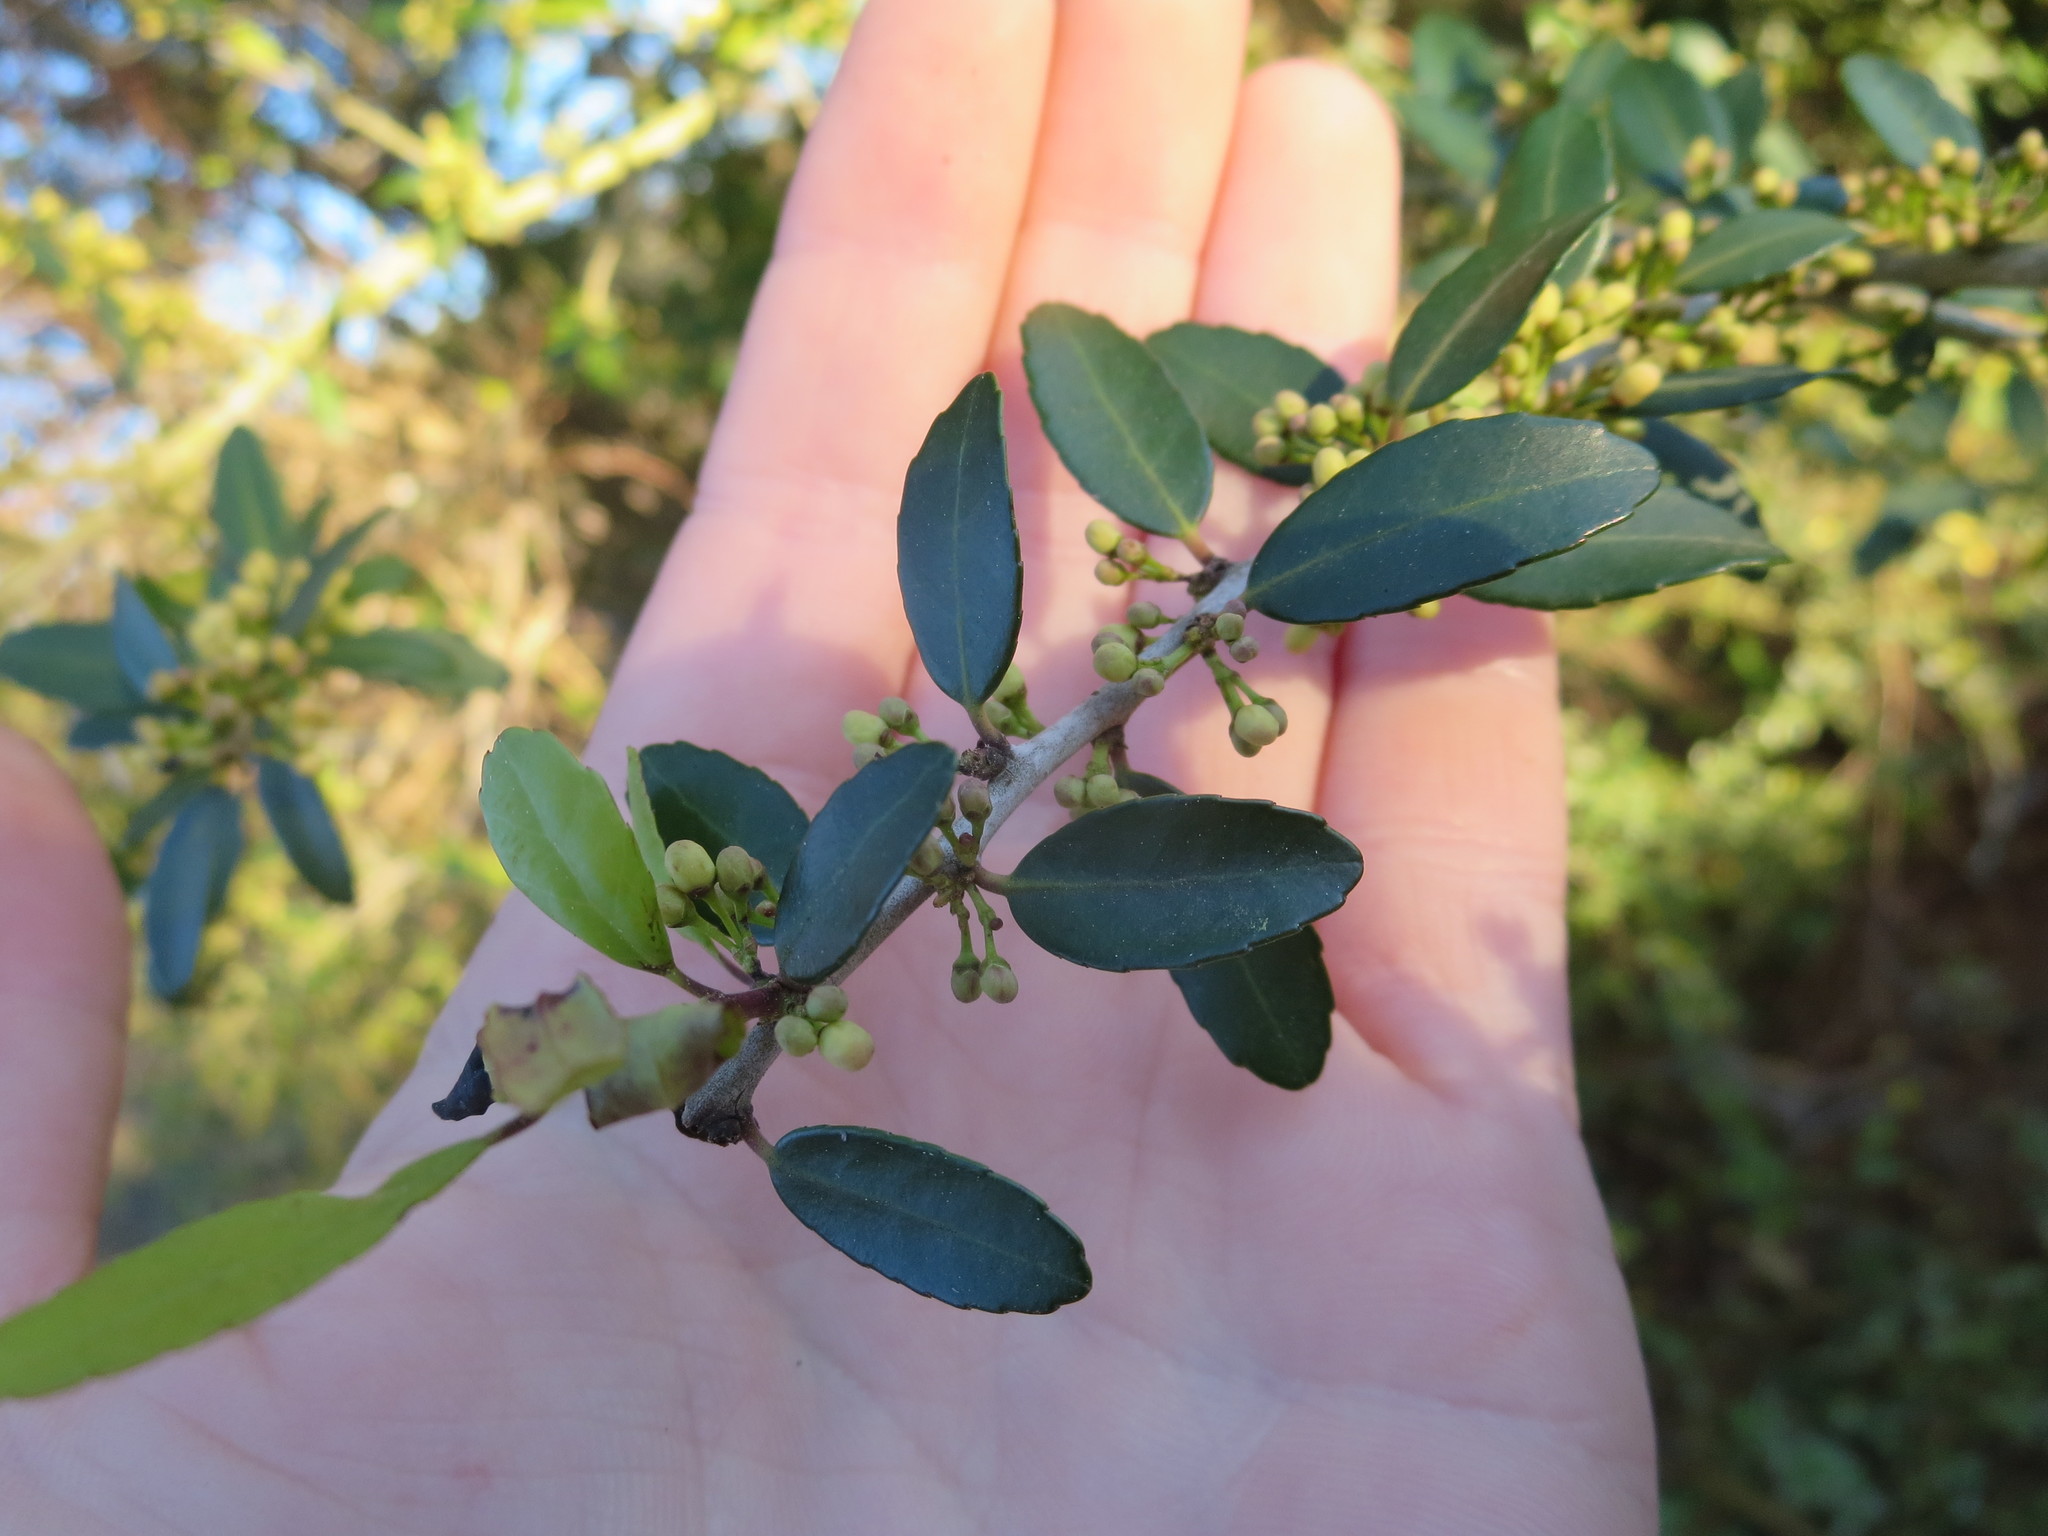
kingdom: Plantae
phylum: Tracheophyta
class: Magnoliopsida
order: Aquifoliales
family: Aquifoliaceae
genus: Ilex
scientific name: Ilex vomitoria
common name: Yaupon holly
